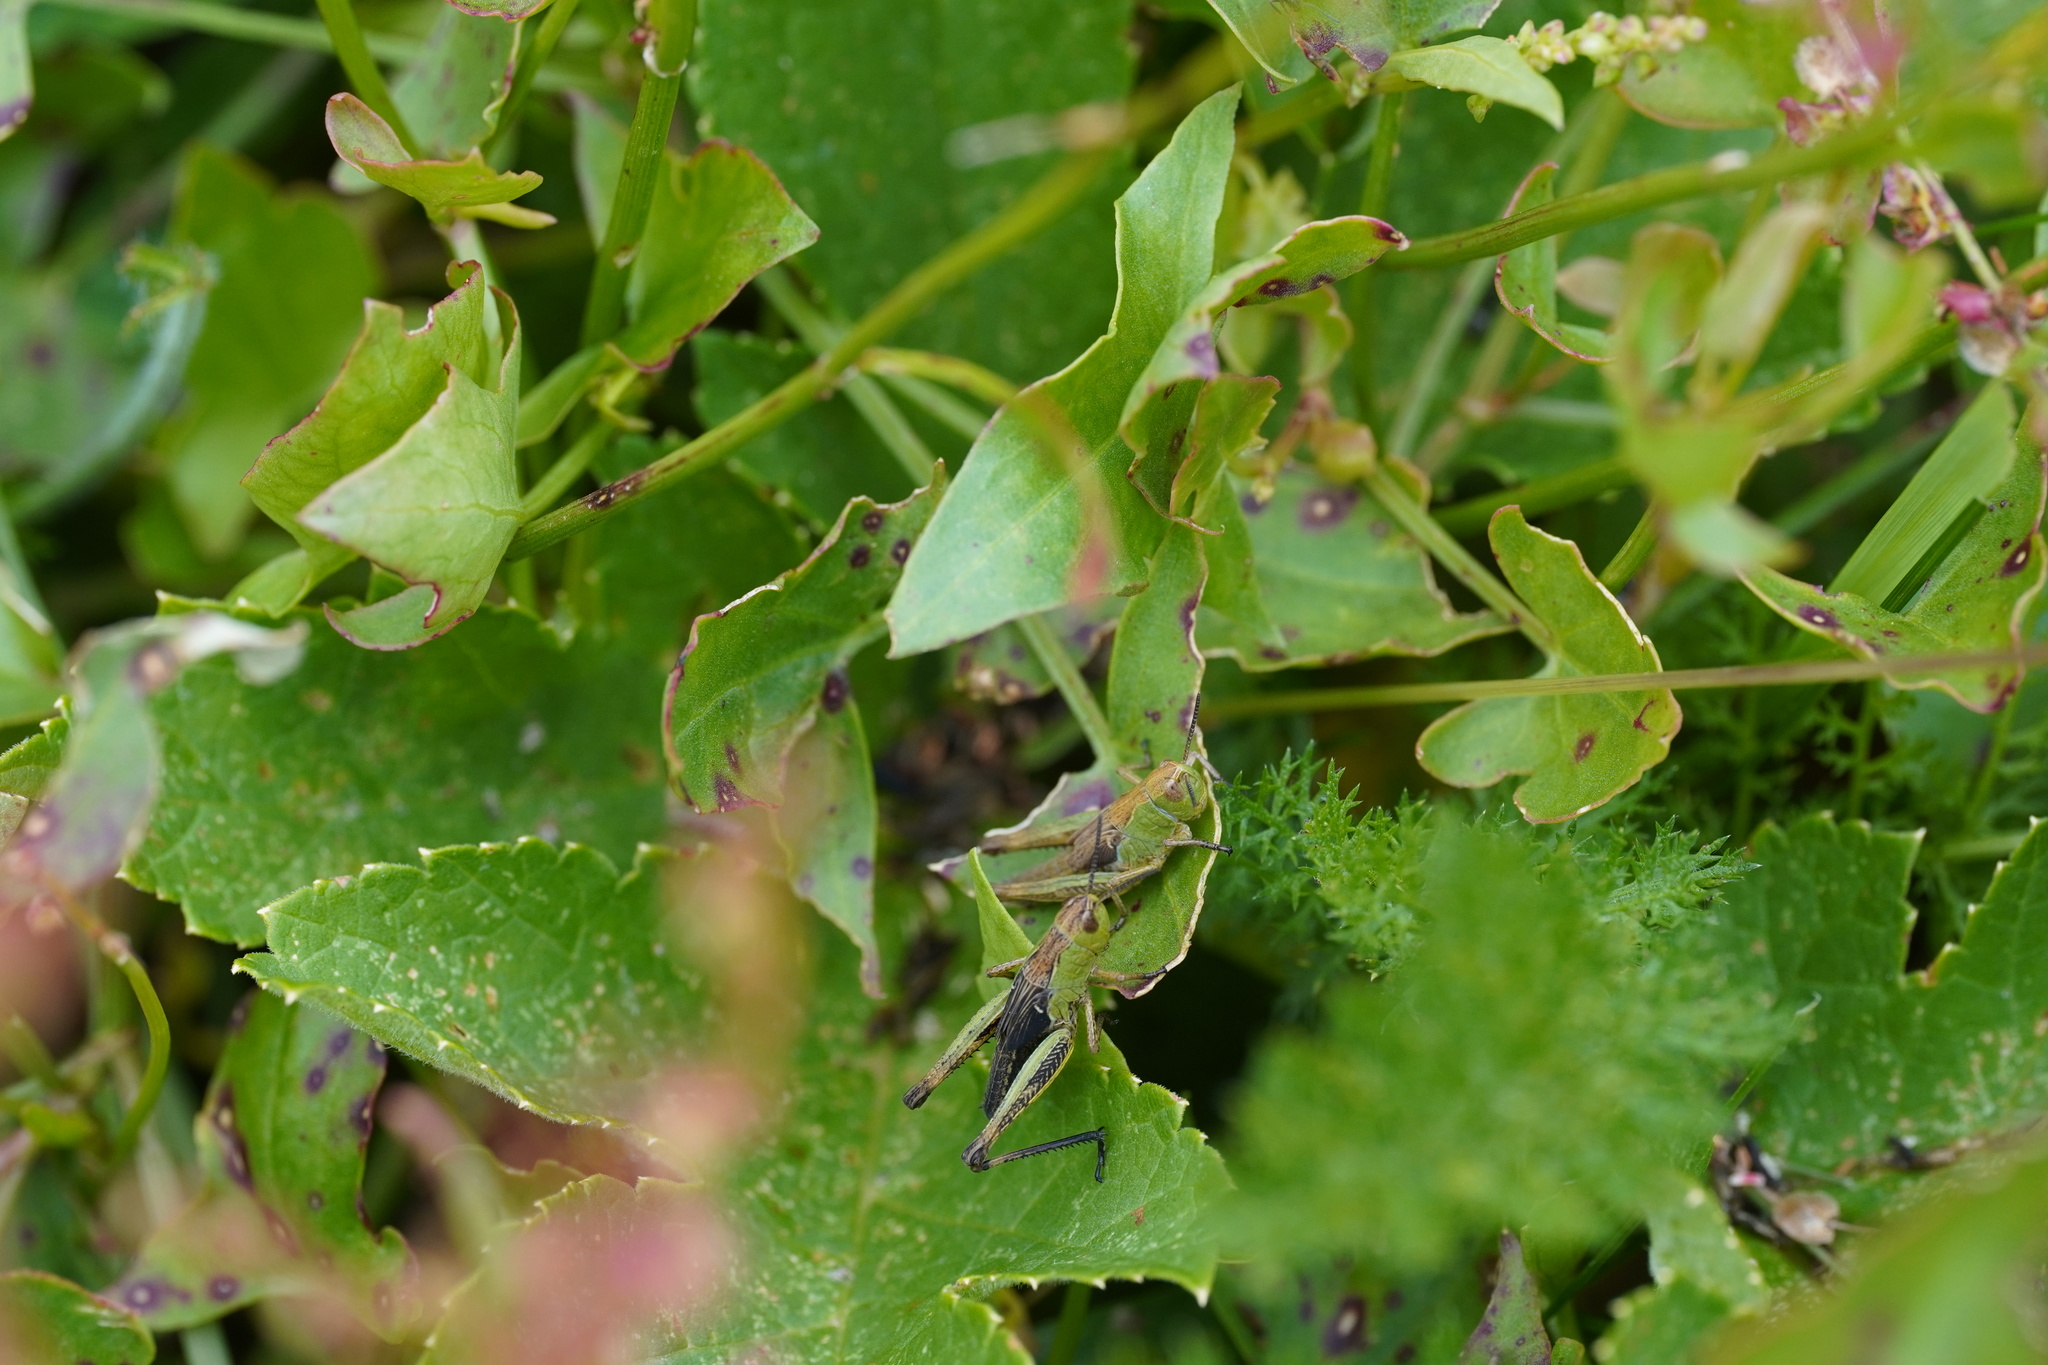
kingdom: Animalia
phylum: Arthropoda
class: Insecta
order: Orthoptera
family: Acrididae
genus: Stauroderus
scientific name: Stauroderus scalaris
